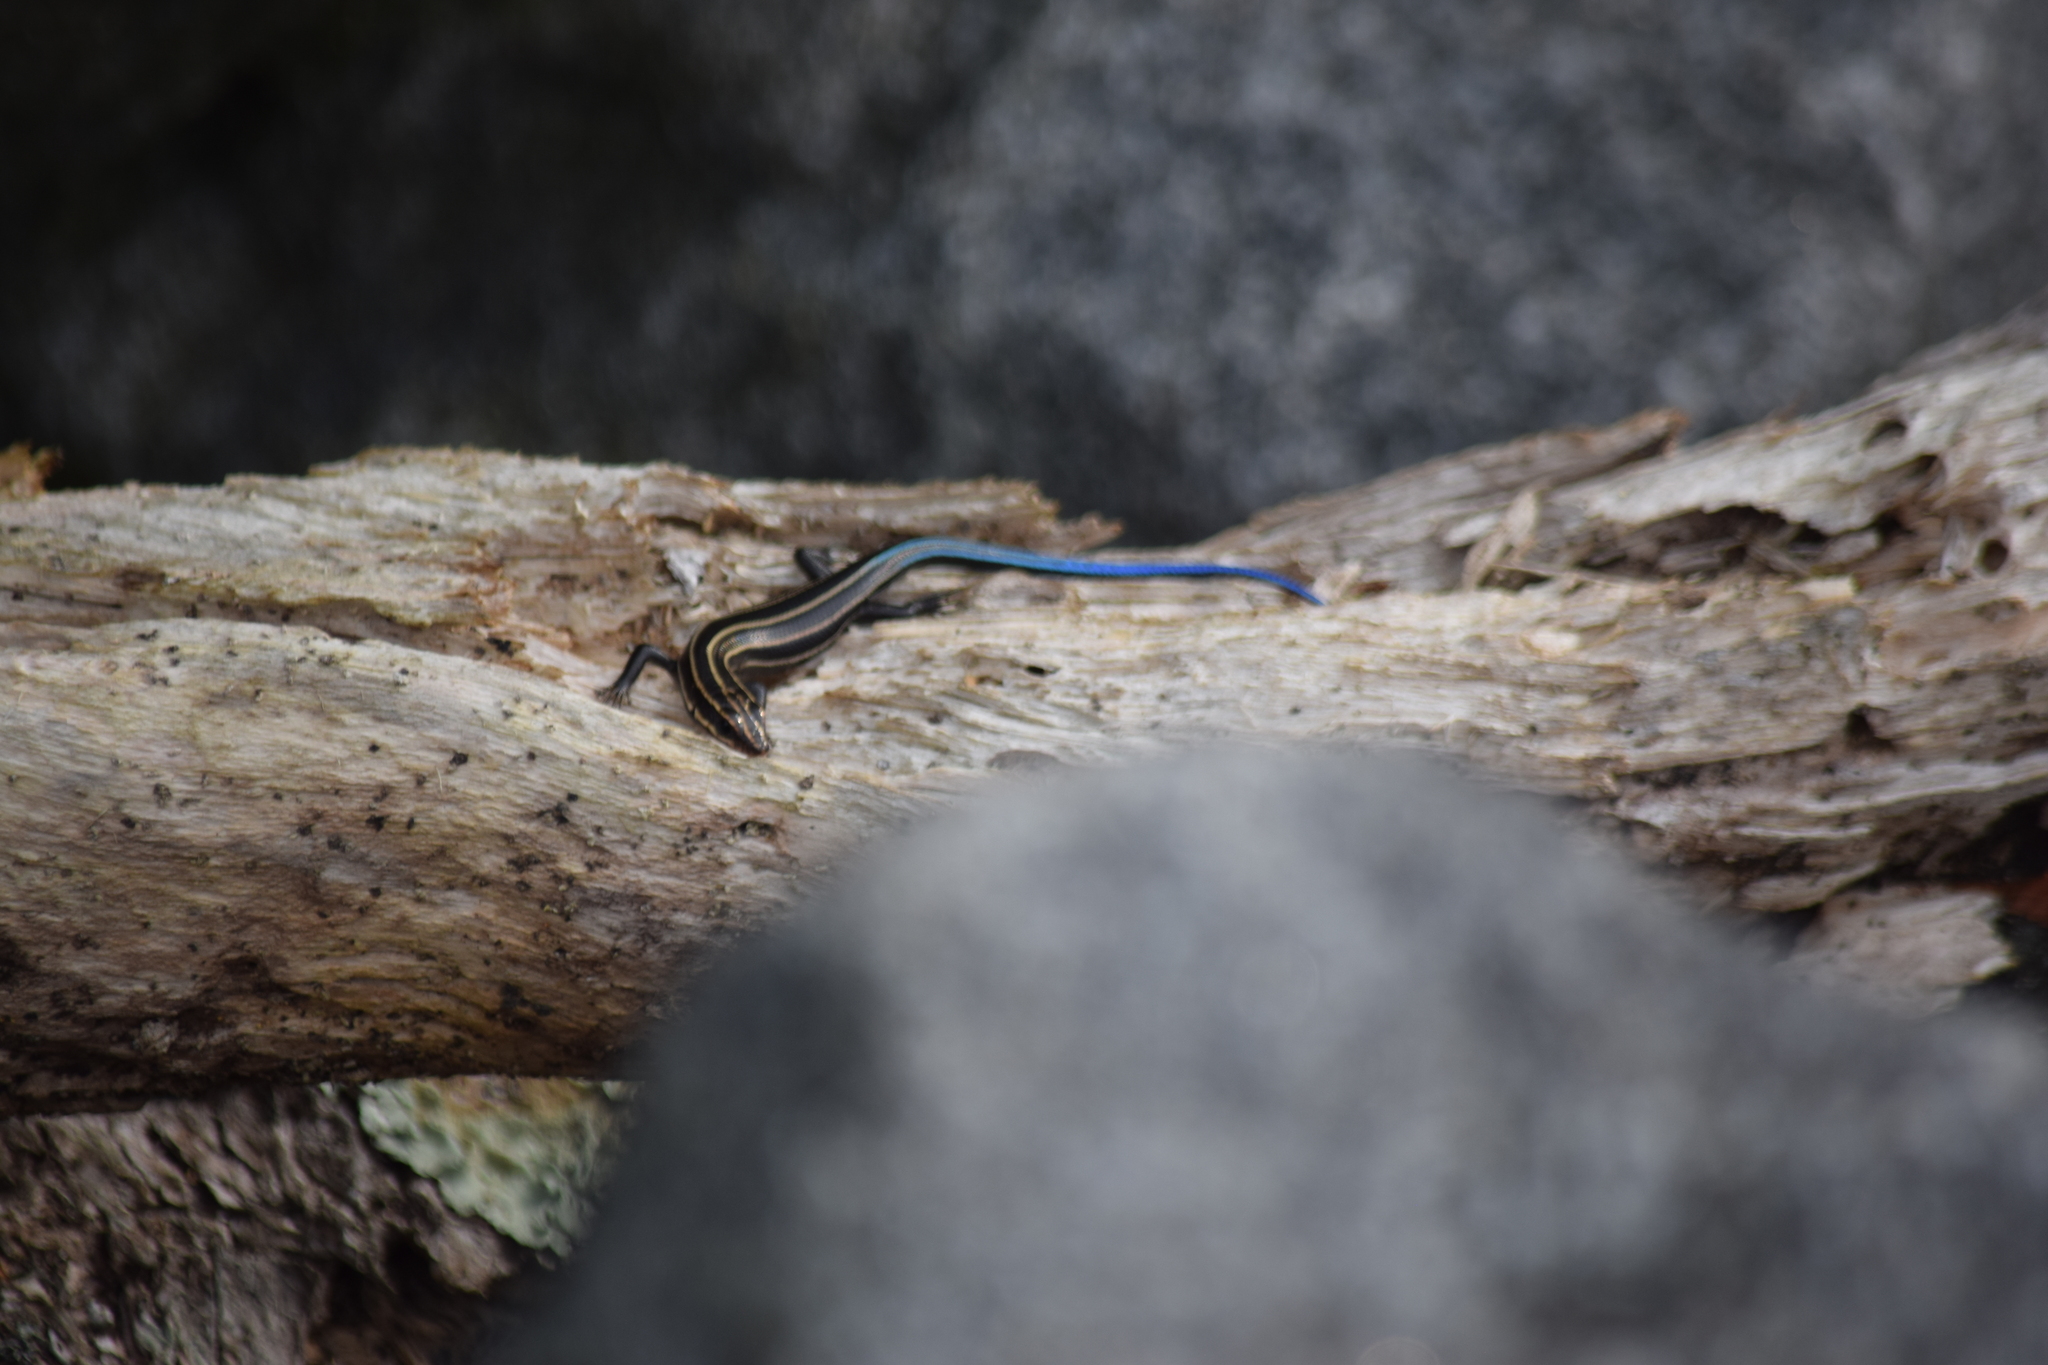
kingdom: Animalia
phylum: Chordata
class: Squamata
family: Scincidae
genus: Plestiodon
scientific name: Plestiodon fasciatus
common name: Five-lined skink
